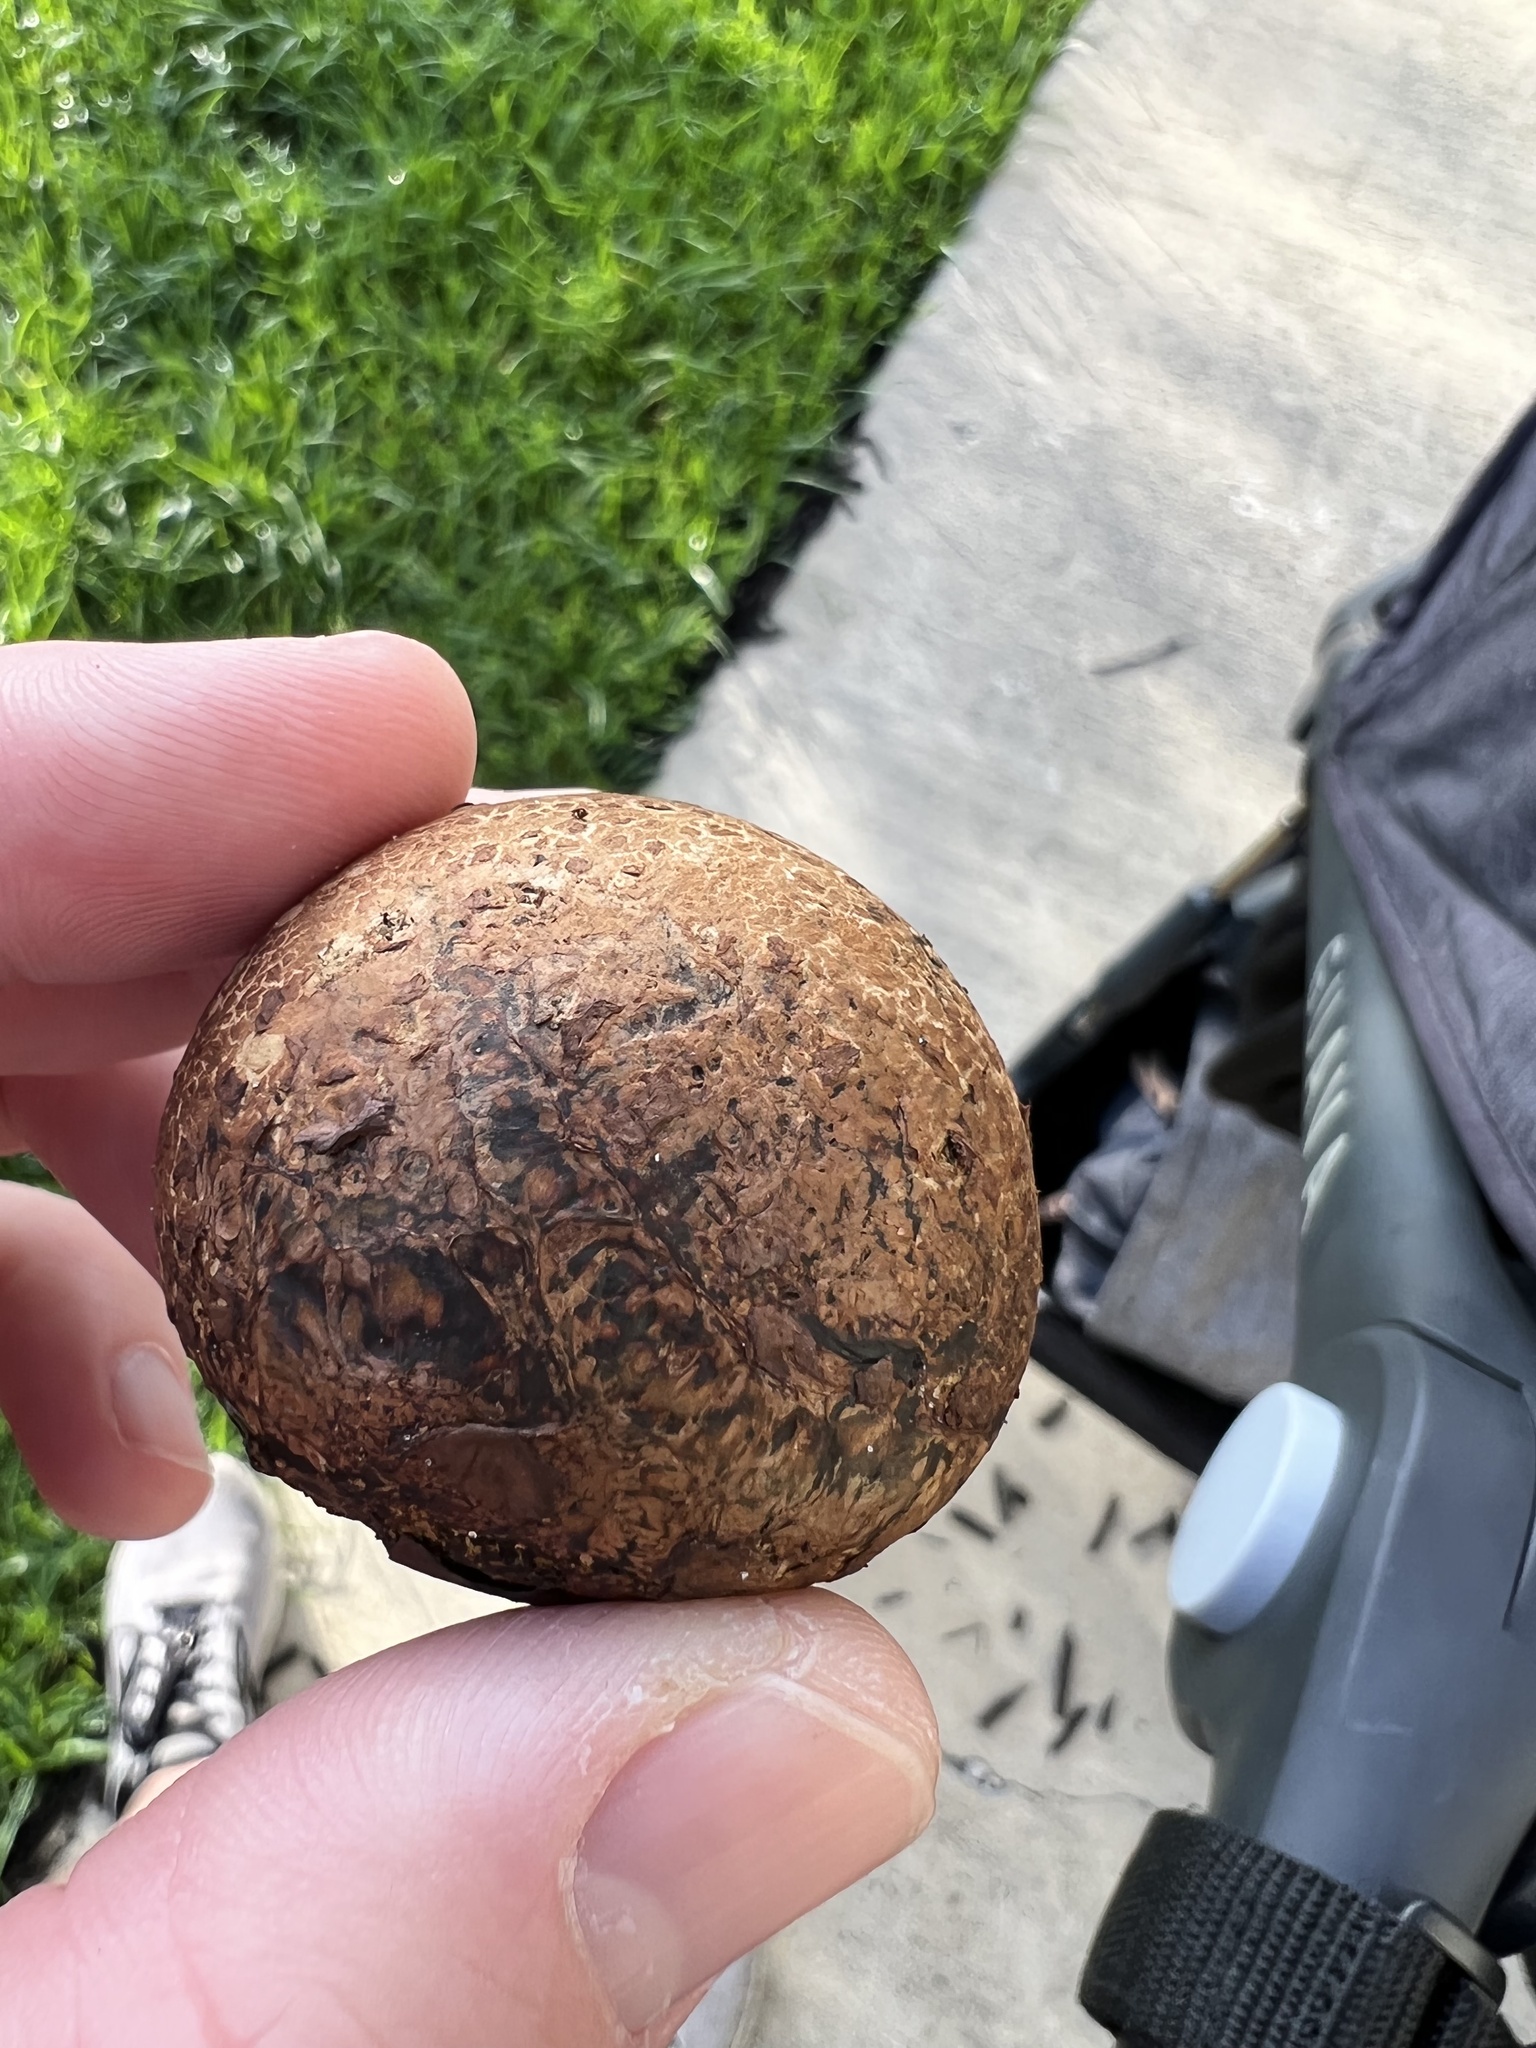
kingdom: Fungi
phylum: Basidiomycota
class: Agaricomycetes
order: Boletales
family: Sclerodermataceae
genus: Pisolithus
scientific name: Pisolithus arenarius
